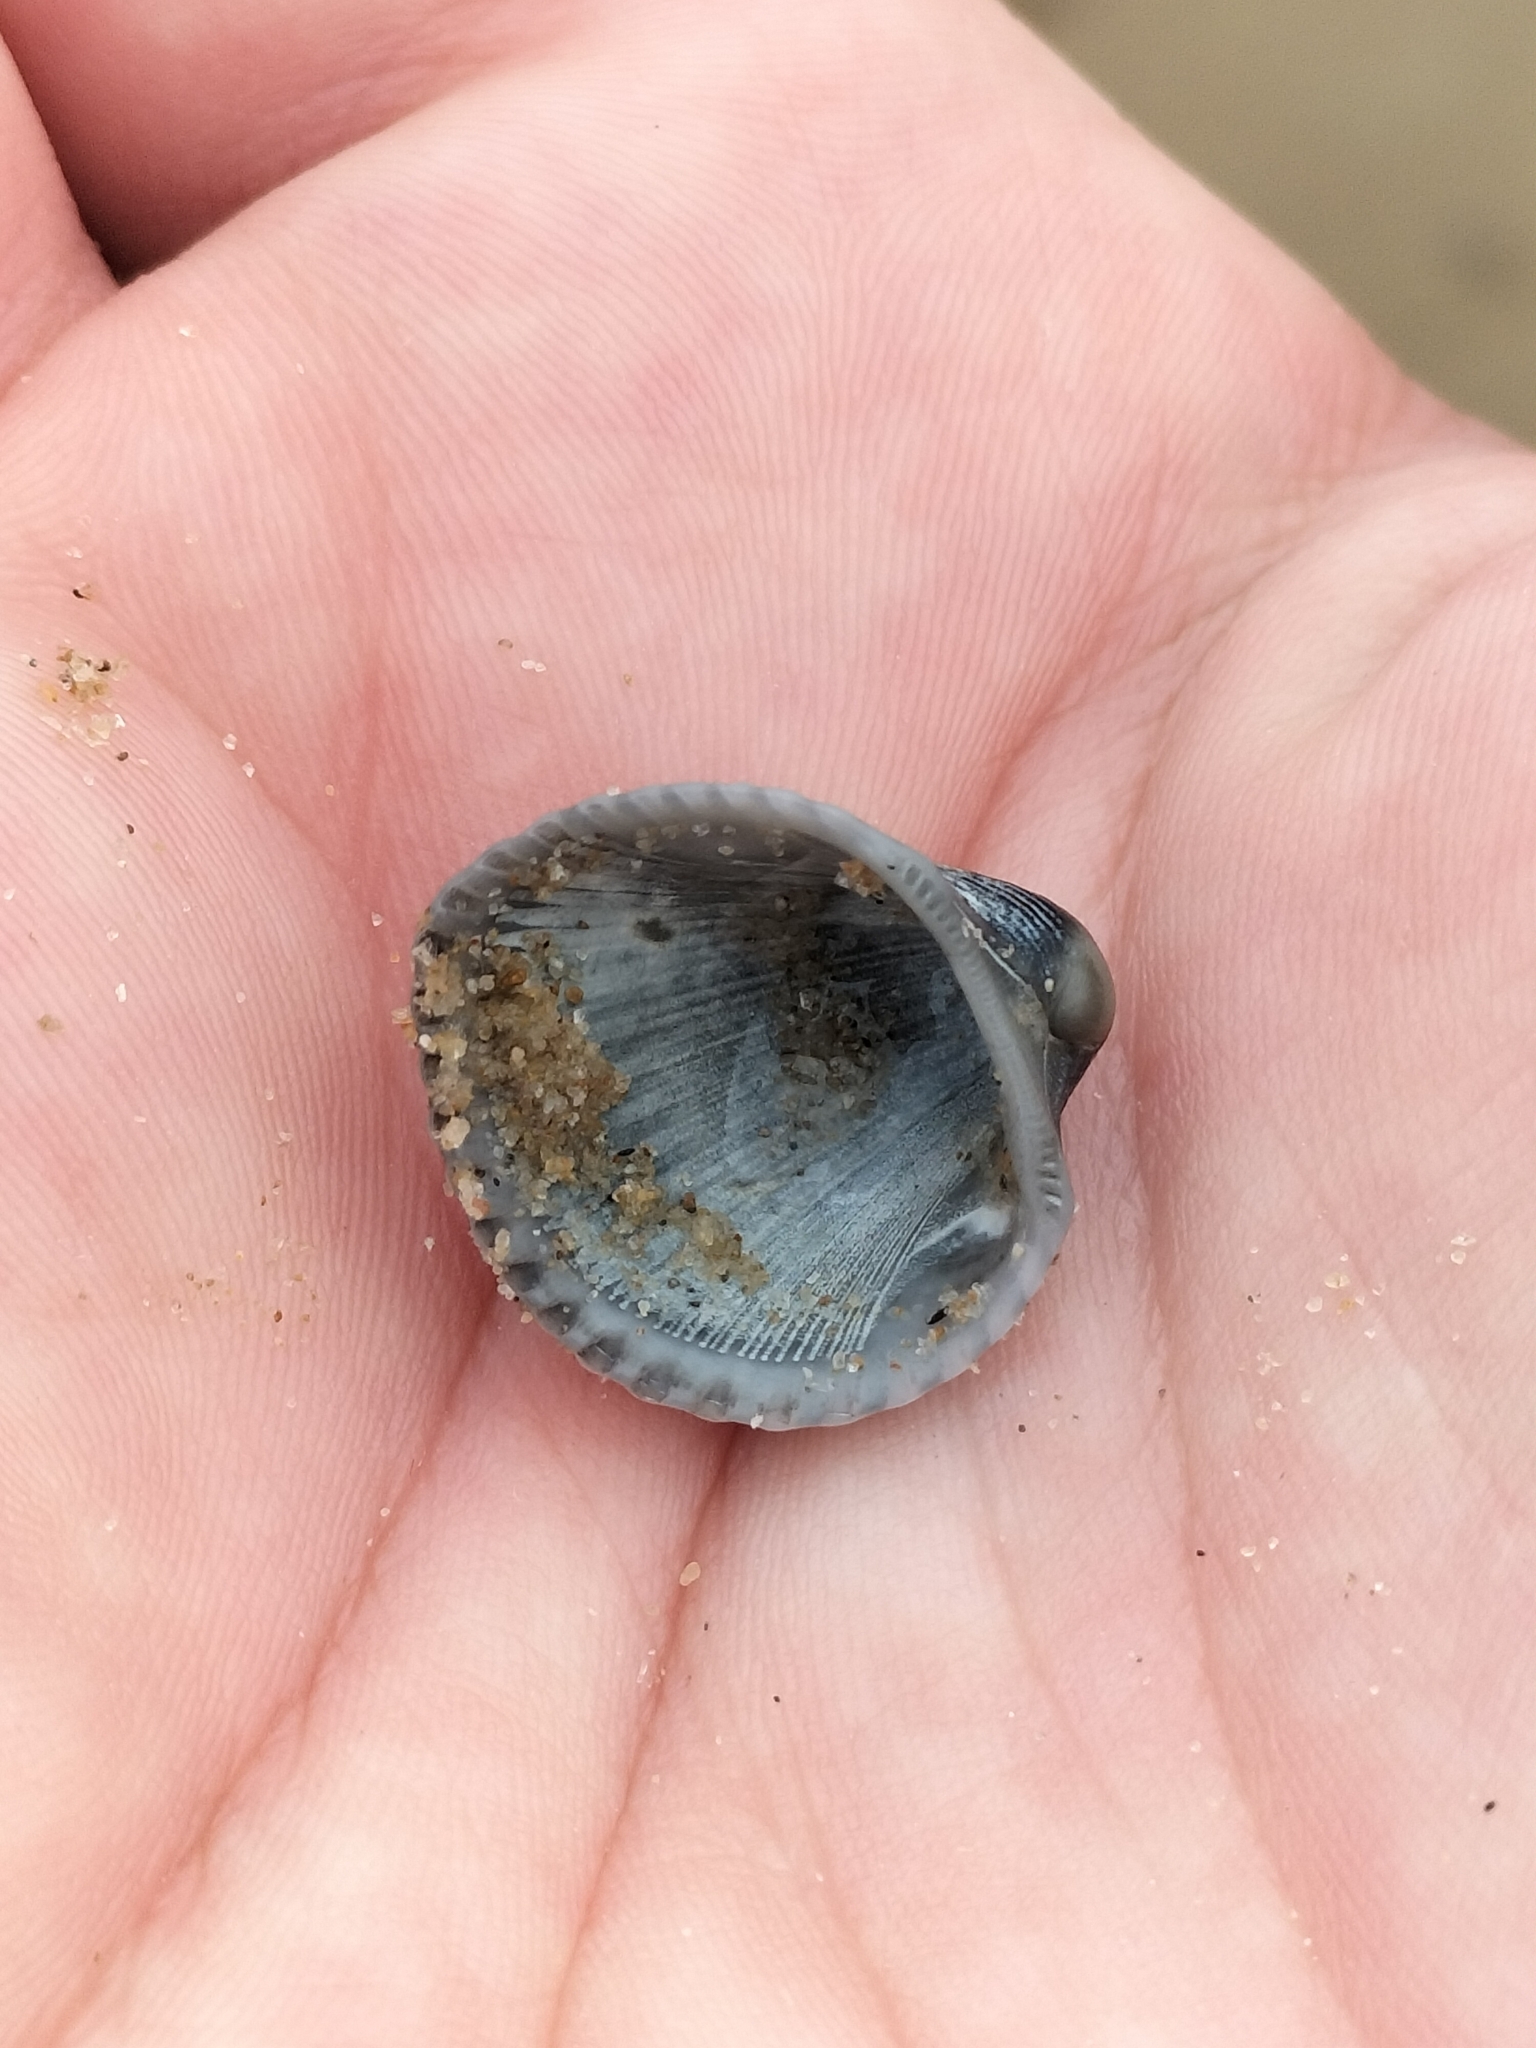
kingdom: Animalia
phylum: Mollusca
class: Bivalvia
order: Arcida
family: Arcidae
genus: Anadara
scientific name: Anadara pilula
